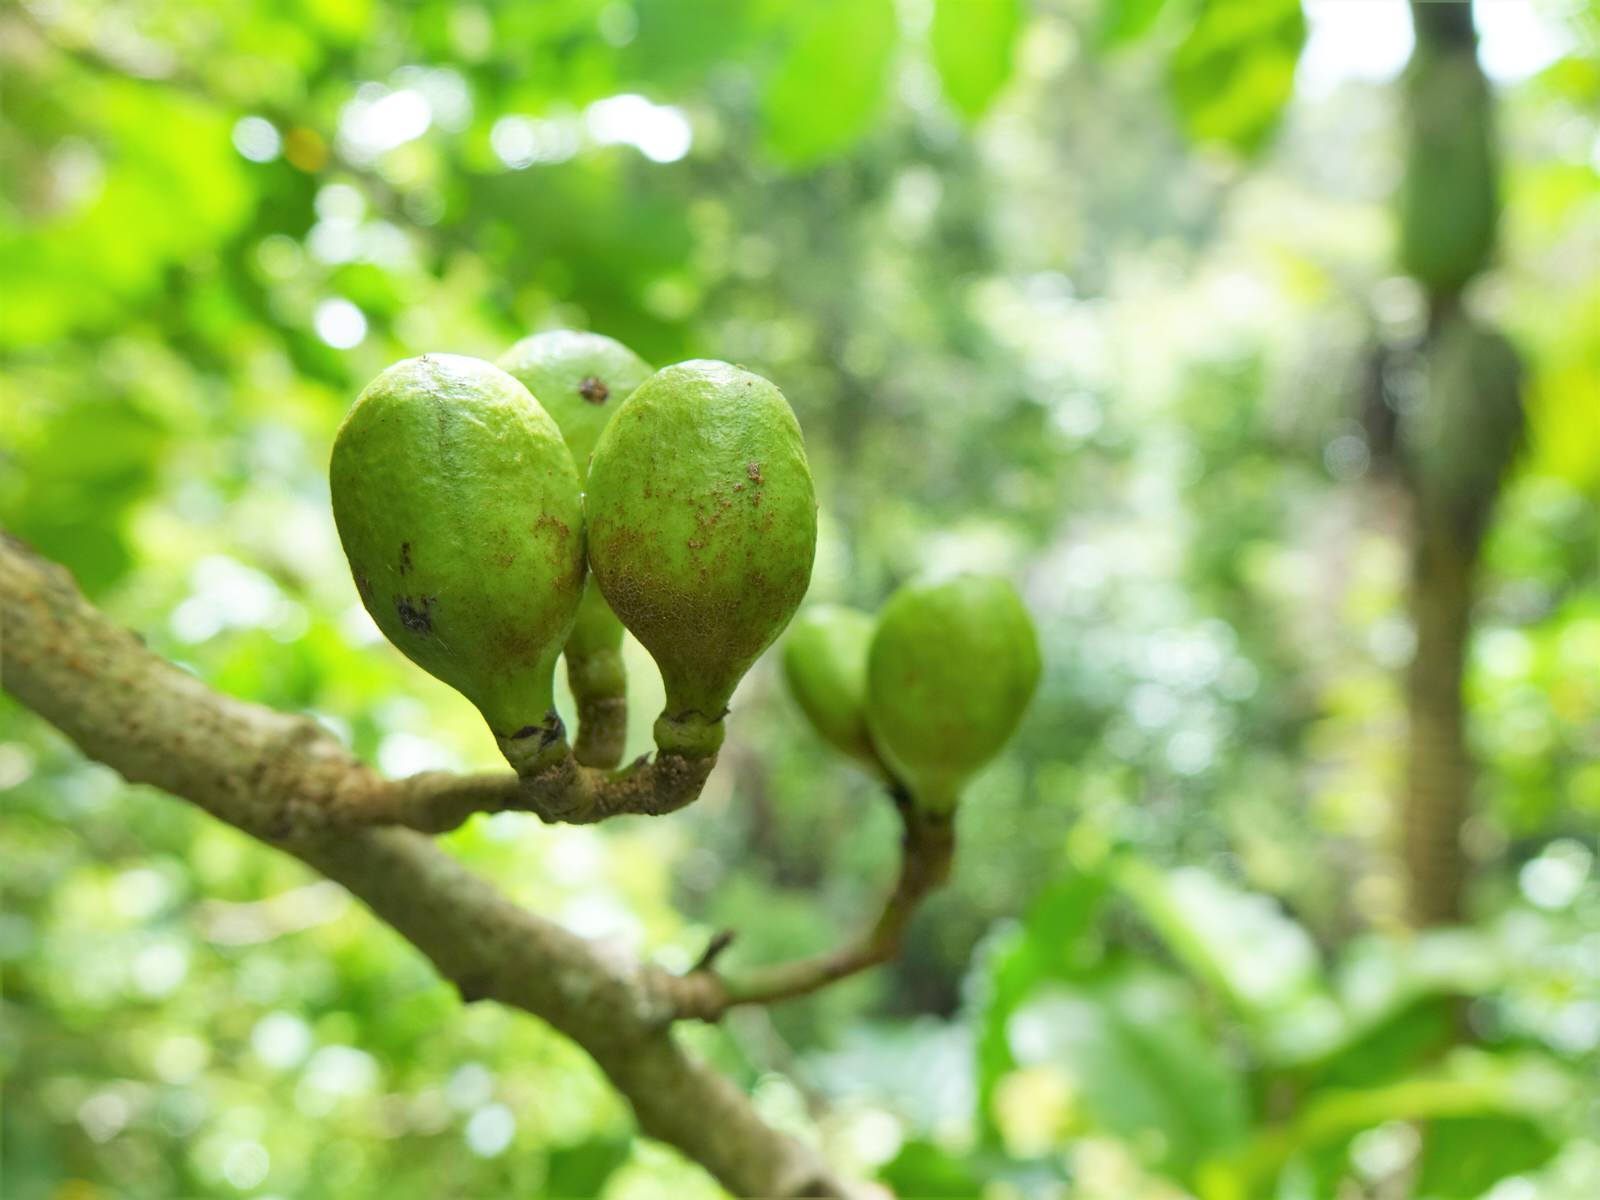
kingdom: Plantae
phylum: Tracheophyta
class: Magnoliopsida
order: Sapindales
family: Meliaceae
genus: Didymocheton
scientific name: Didymocheton spectabilis
